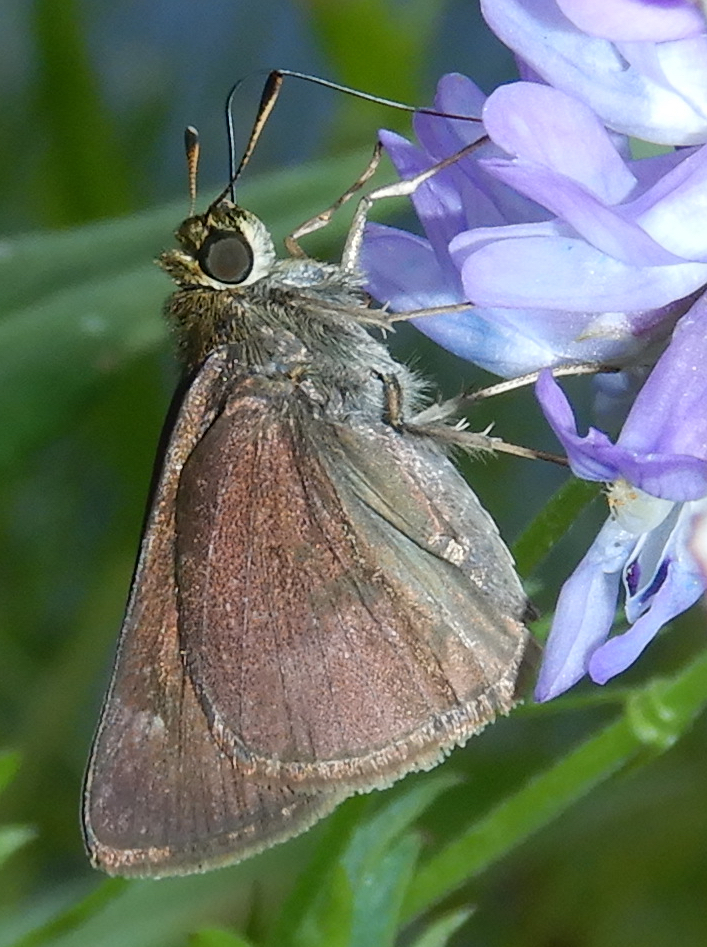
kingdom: Animalia
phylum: Arthropoda
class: Insecta
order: Lepidoptera
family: Hesperiidae
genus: Euphyes
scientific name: Euphyes vestris
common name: Dun skipper
